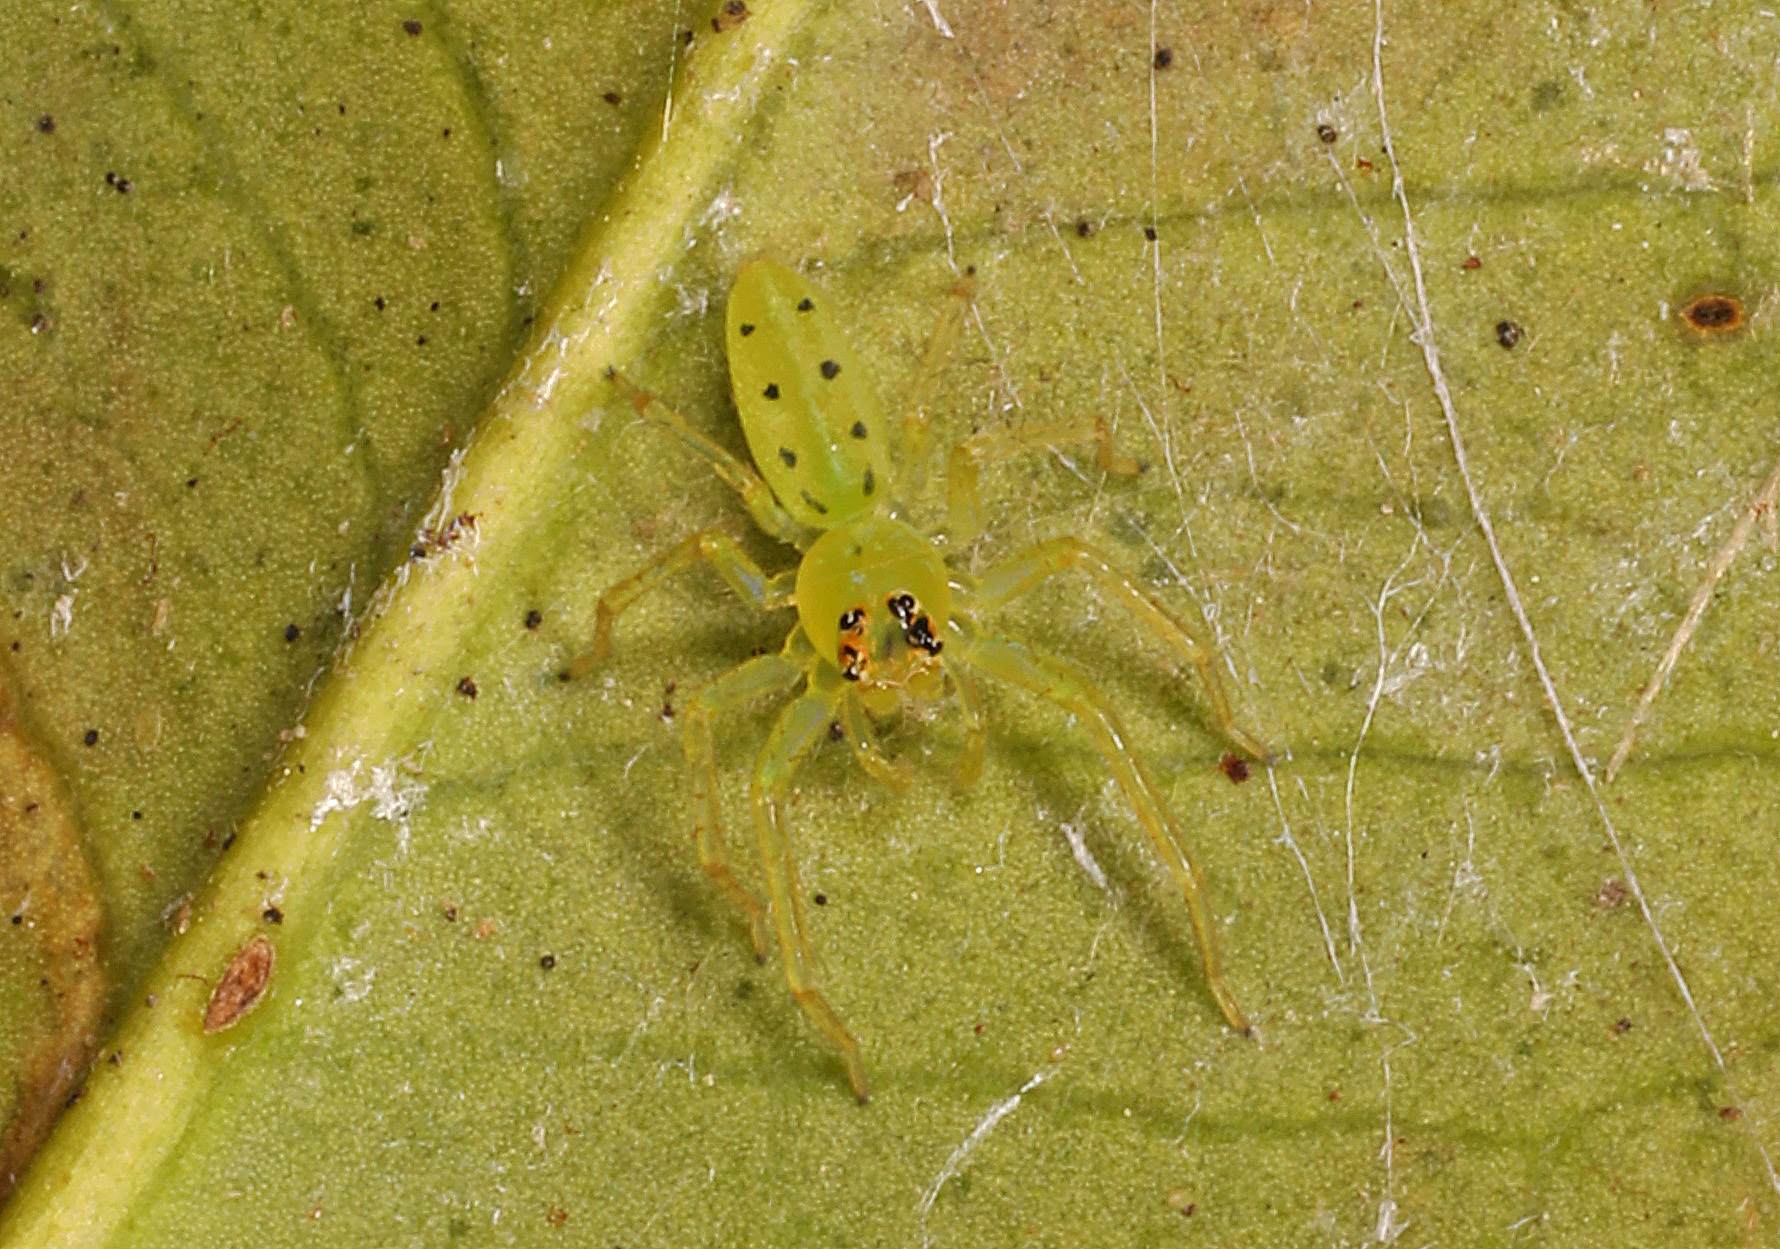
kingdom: Animalia
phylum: Arthropoda
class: Arachnida
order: Araneae
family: Salticidae
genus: Lyssomanes
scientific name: Lyssomanes viridis
